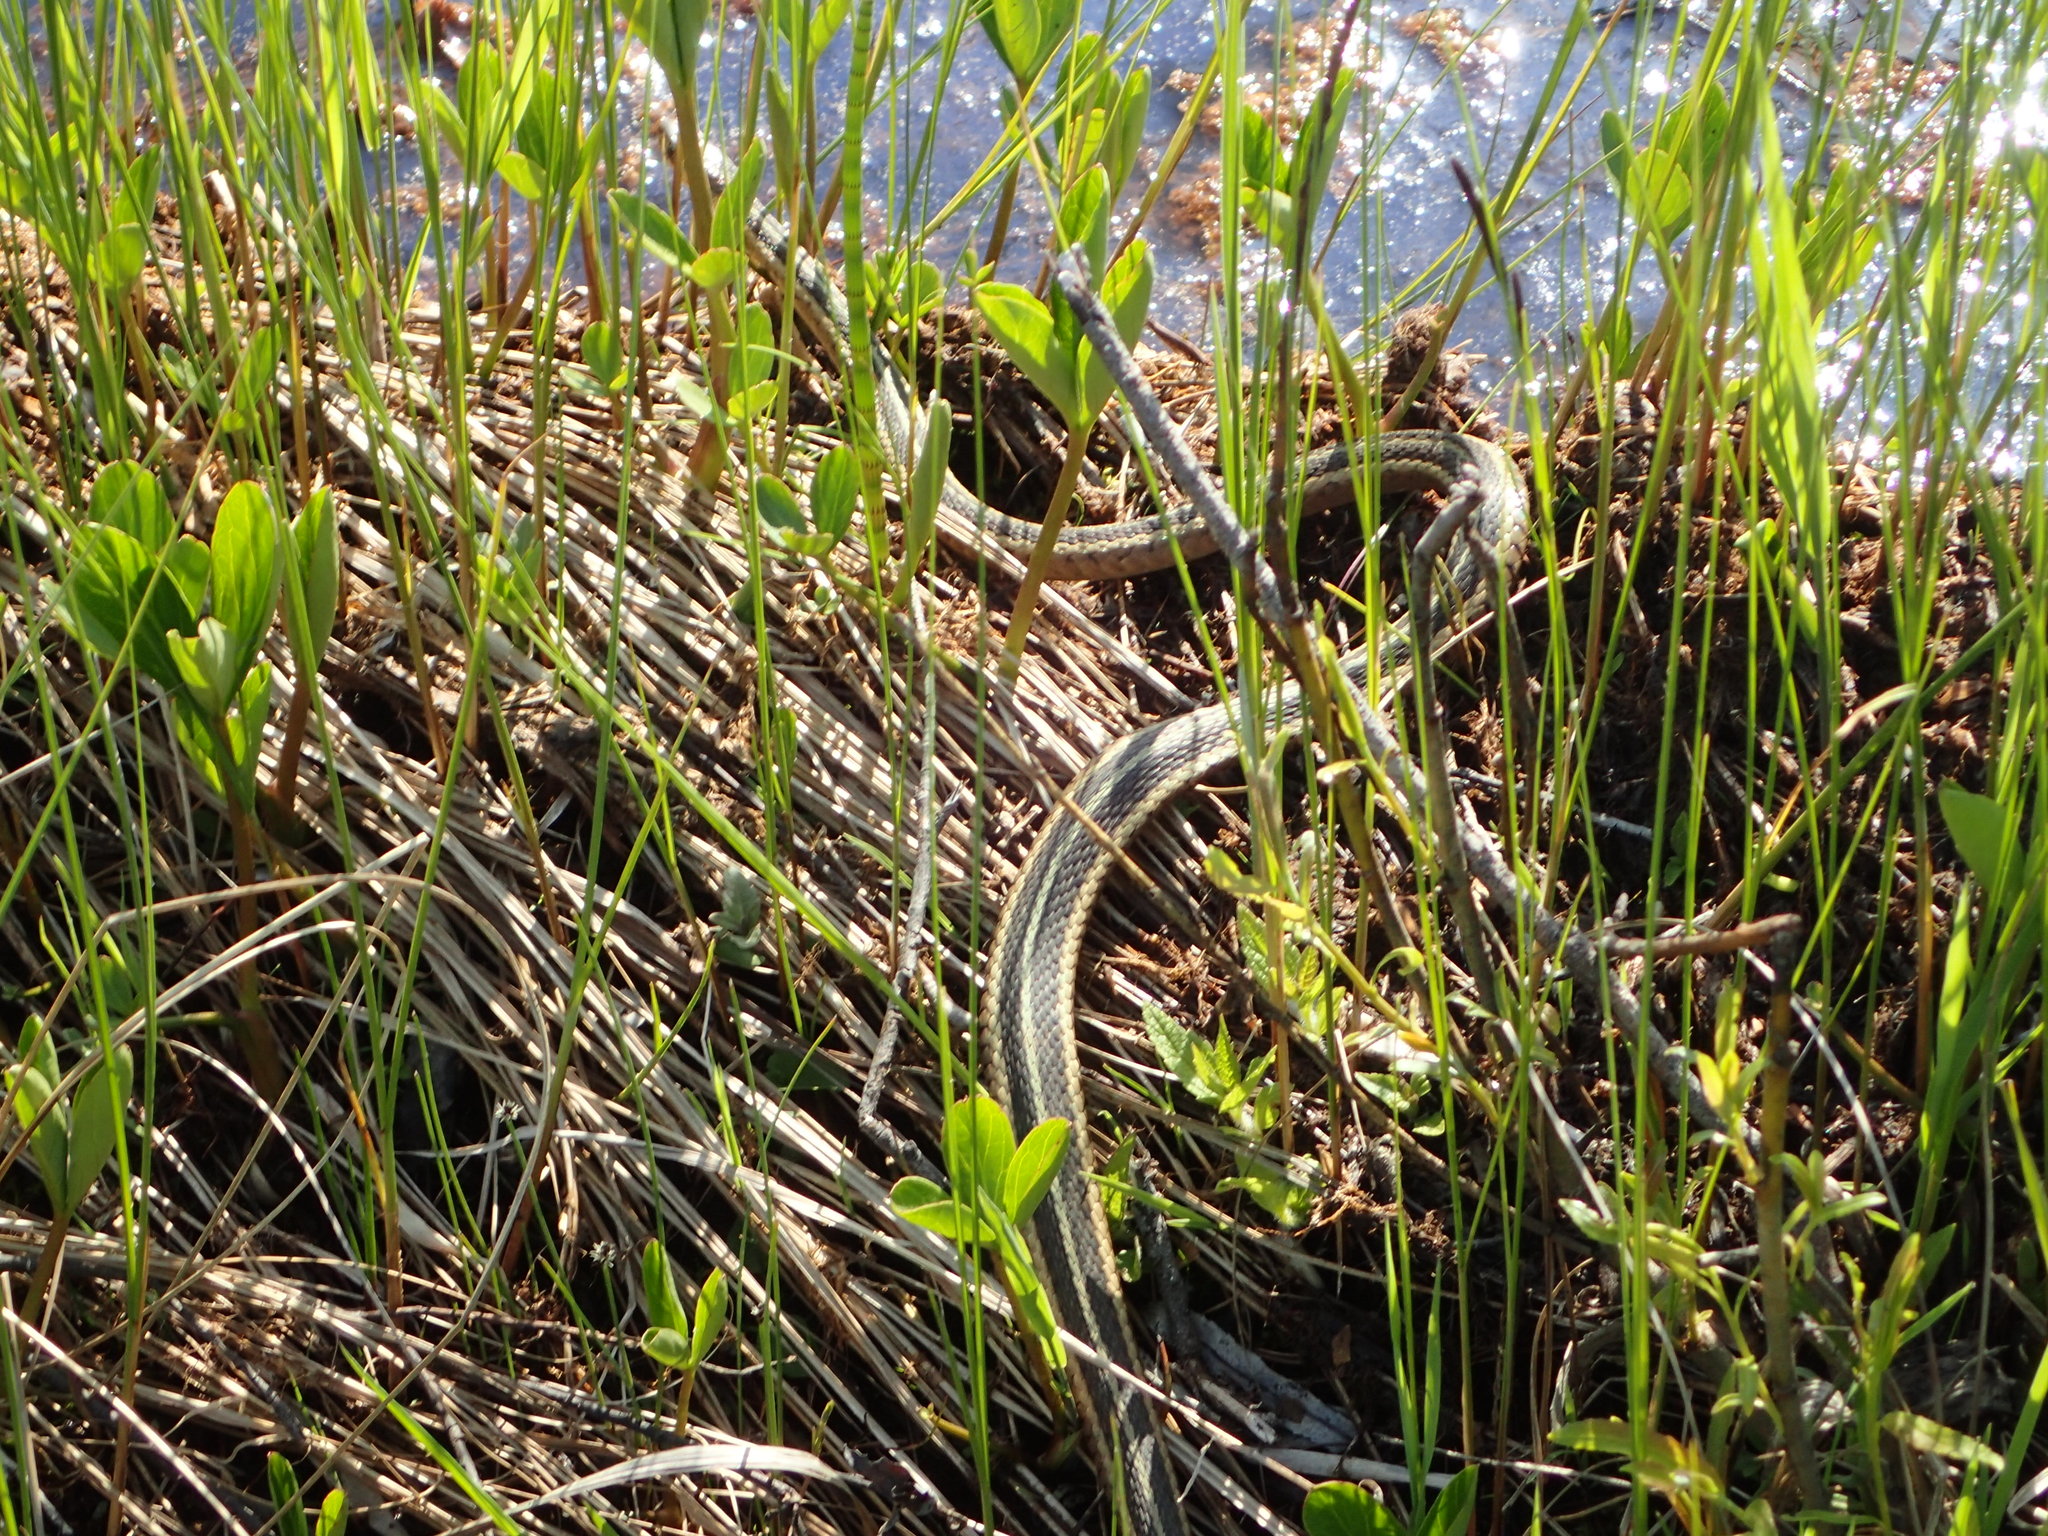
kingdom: Animalia
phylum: Chordata
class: Squamata
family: Colubridae
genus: Thamnophis
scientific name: Thamnophis sirtalis
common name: Common garter snake
